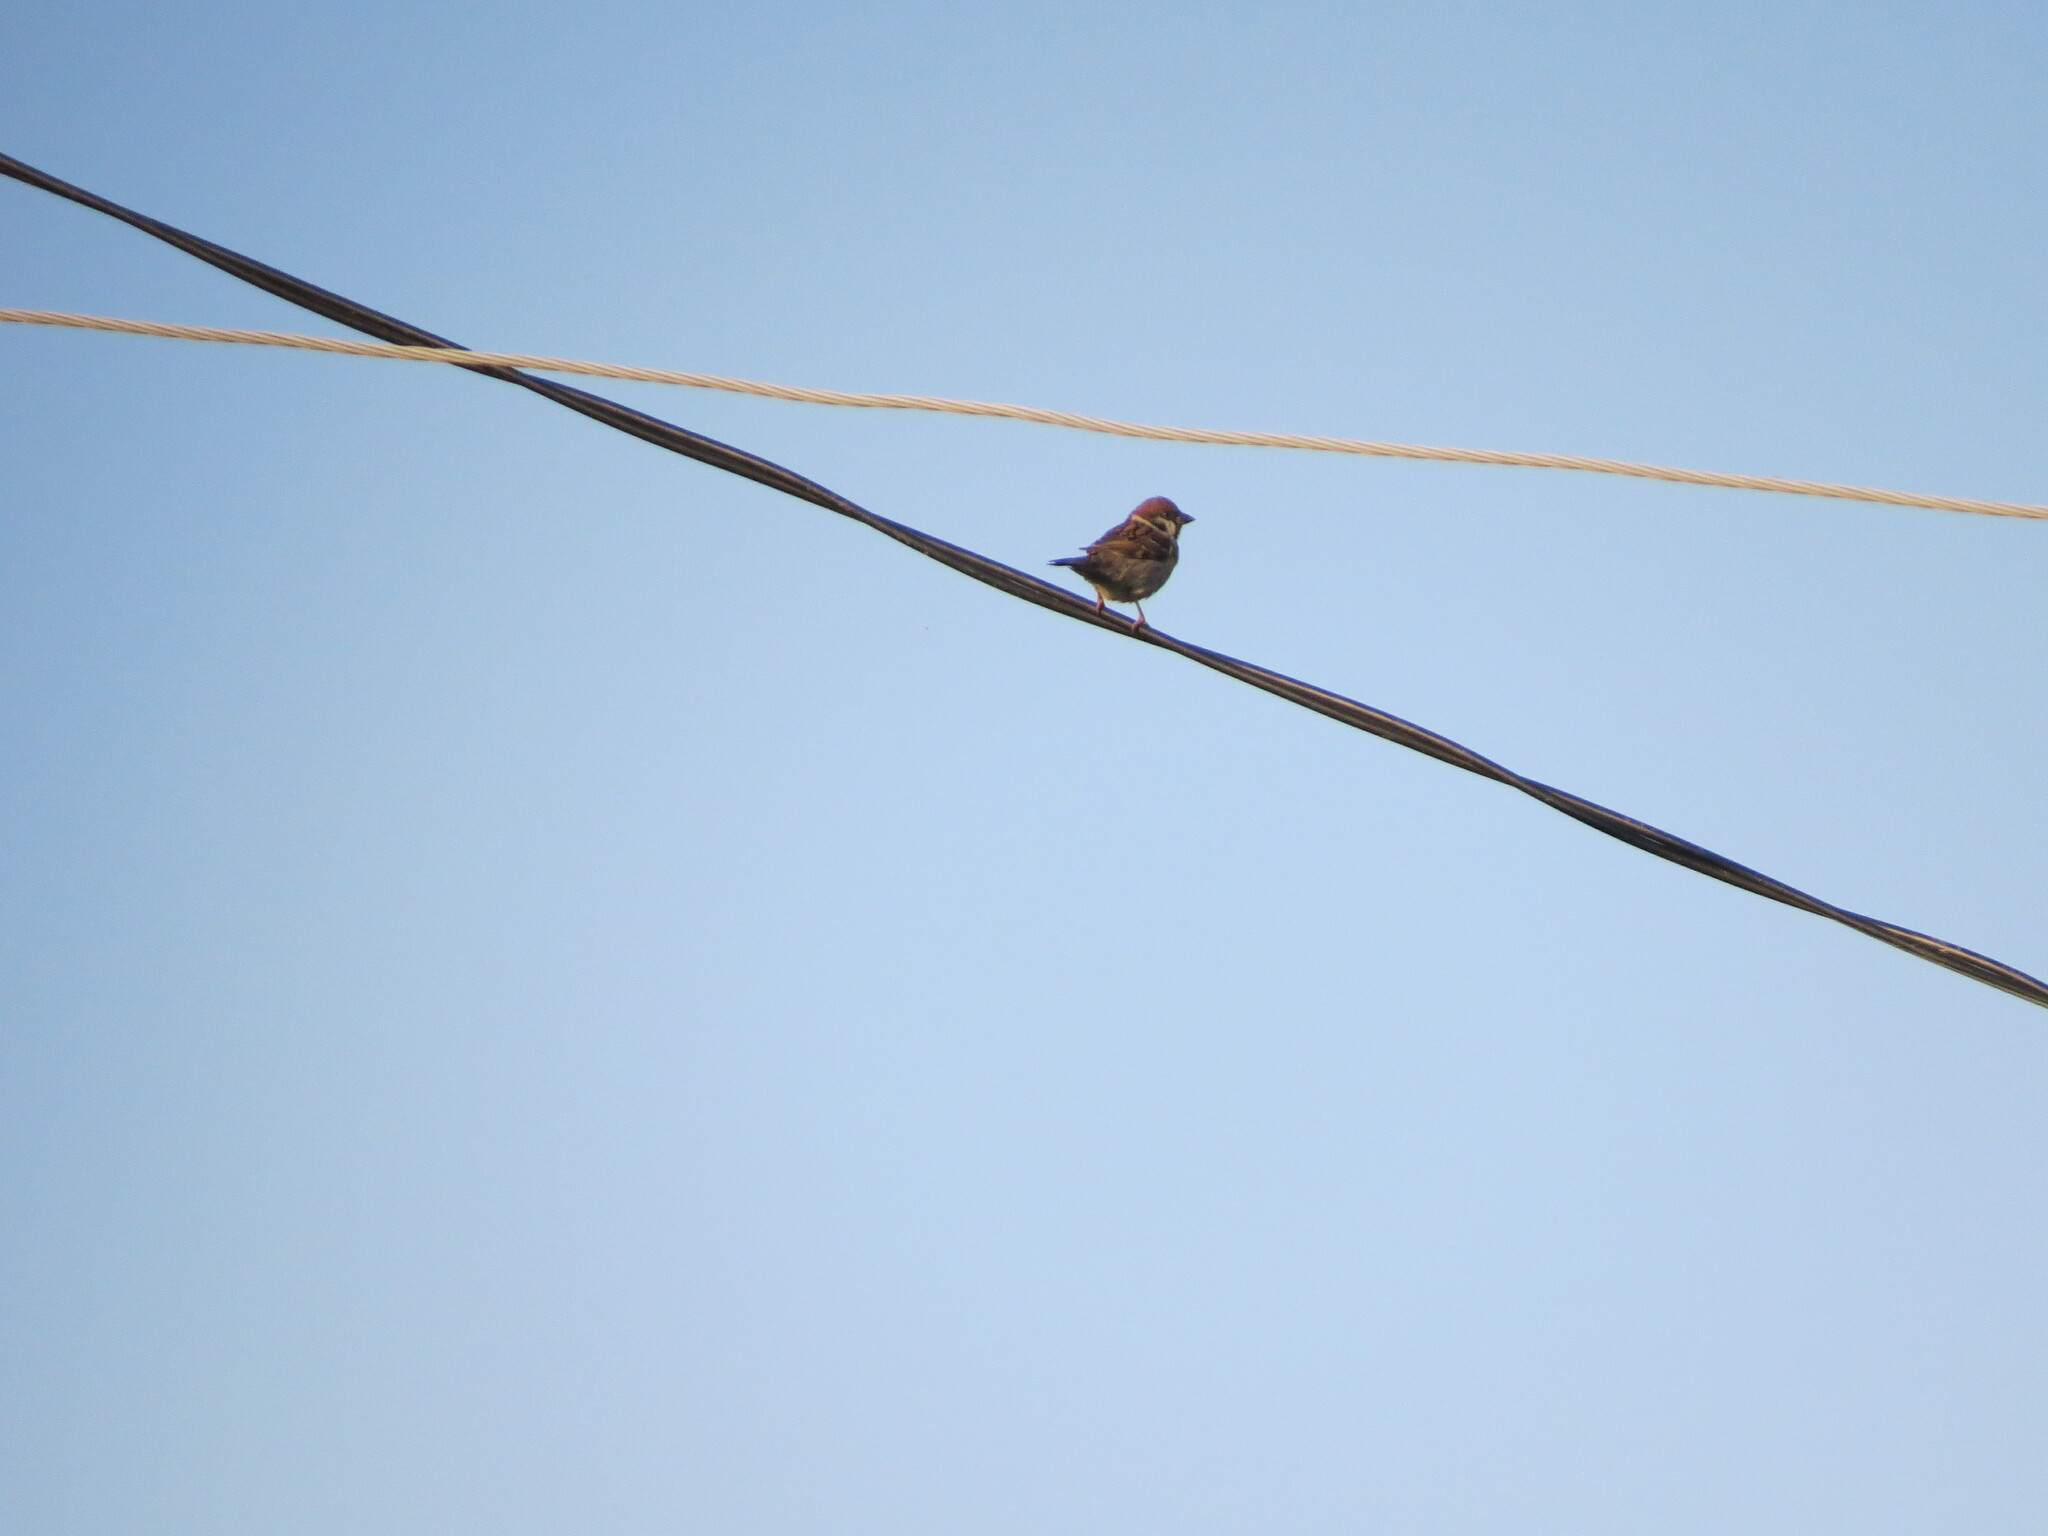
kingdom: Animalia
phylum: Chordata
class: Aves
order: Passeriformes
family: Passeridae
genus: Passer
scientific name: Passer montanus
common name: Eurasian tree sparrow
